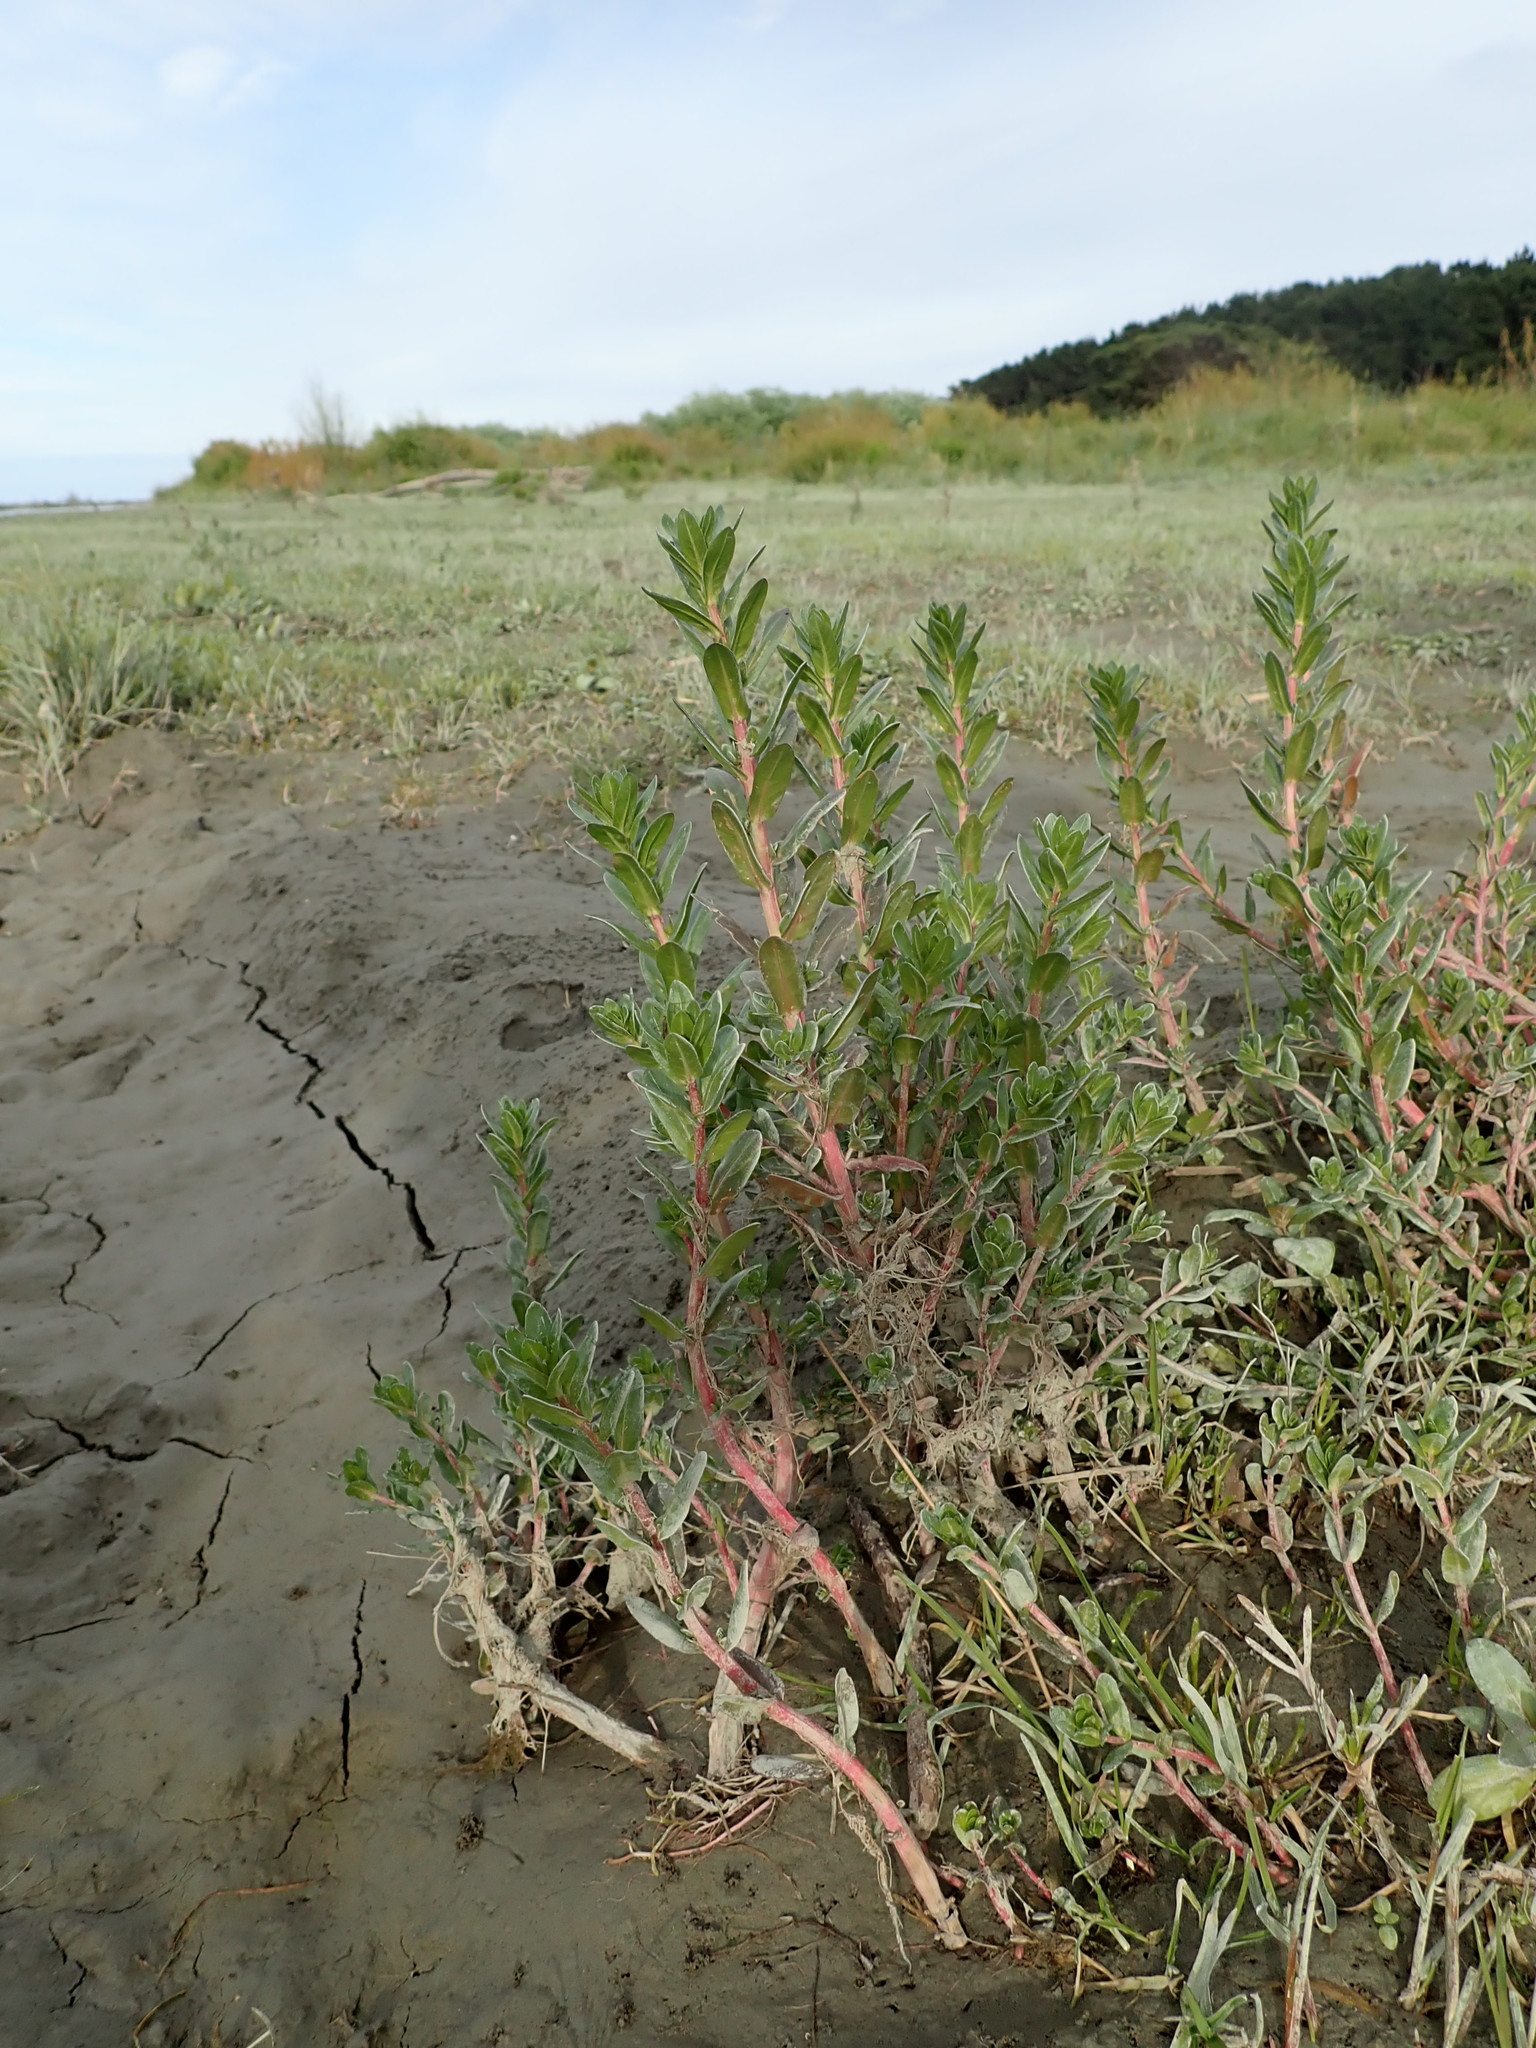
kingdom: Plantae
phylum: Tracheophyta
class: Magnoliopsida
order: Myrtales
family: Lythraceae
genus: Lythrum
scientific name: Lythrum hyssopifolia
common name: Grass-poly
